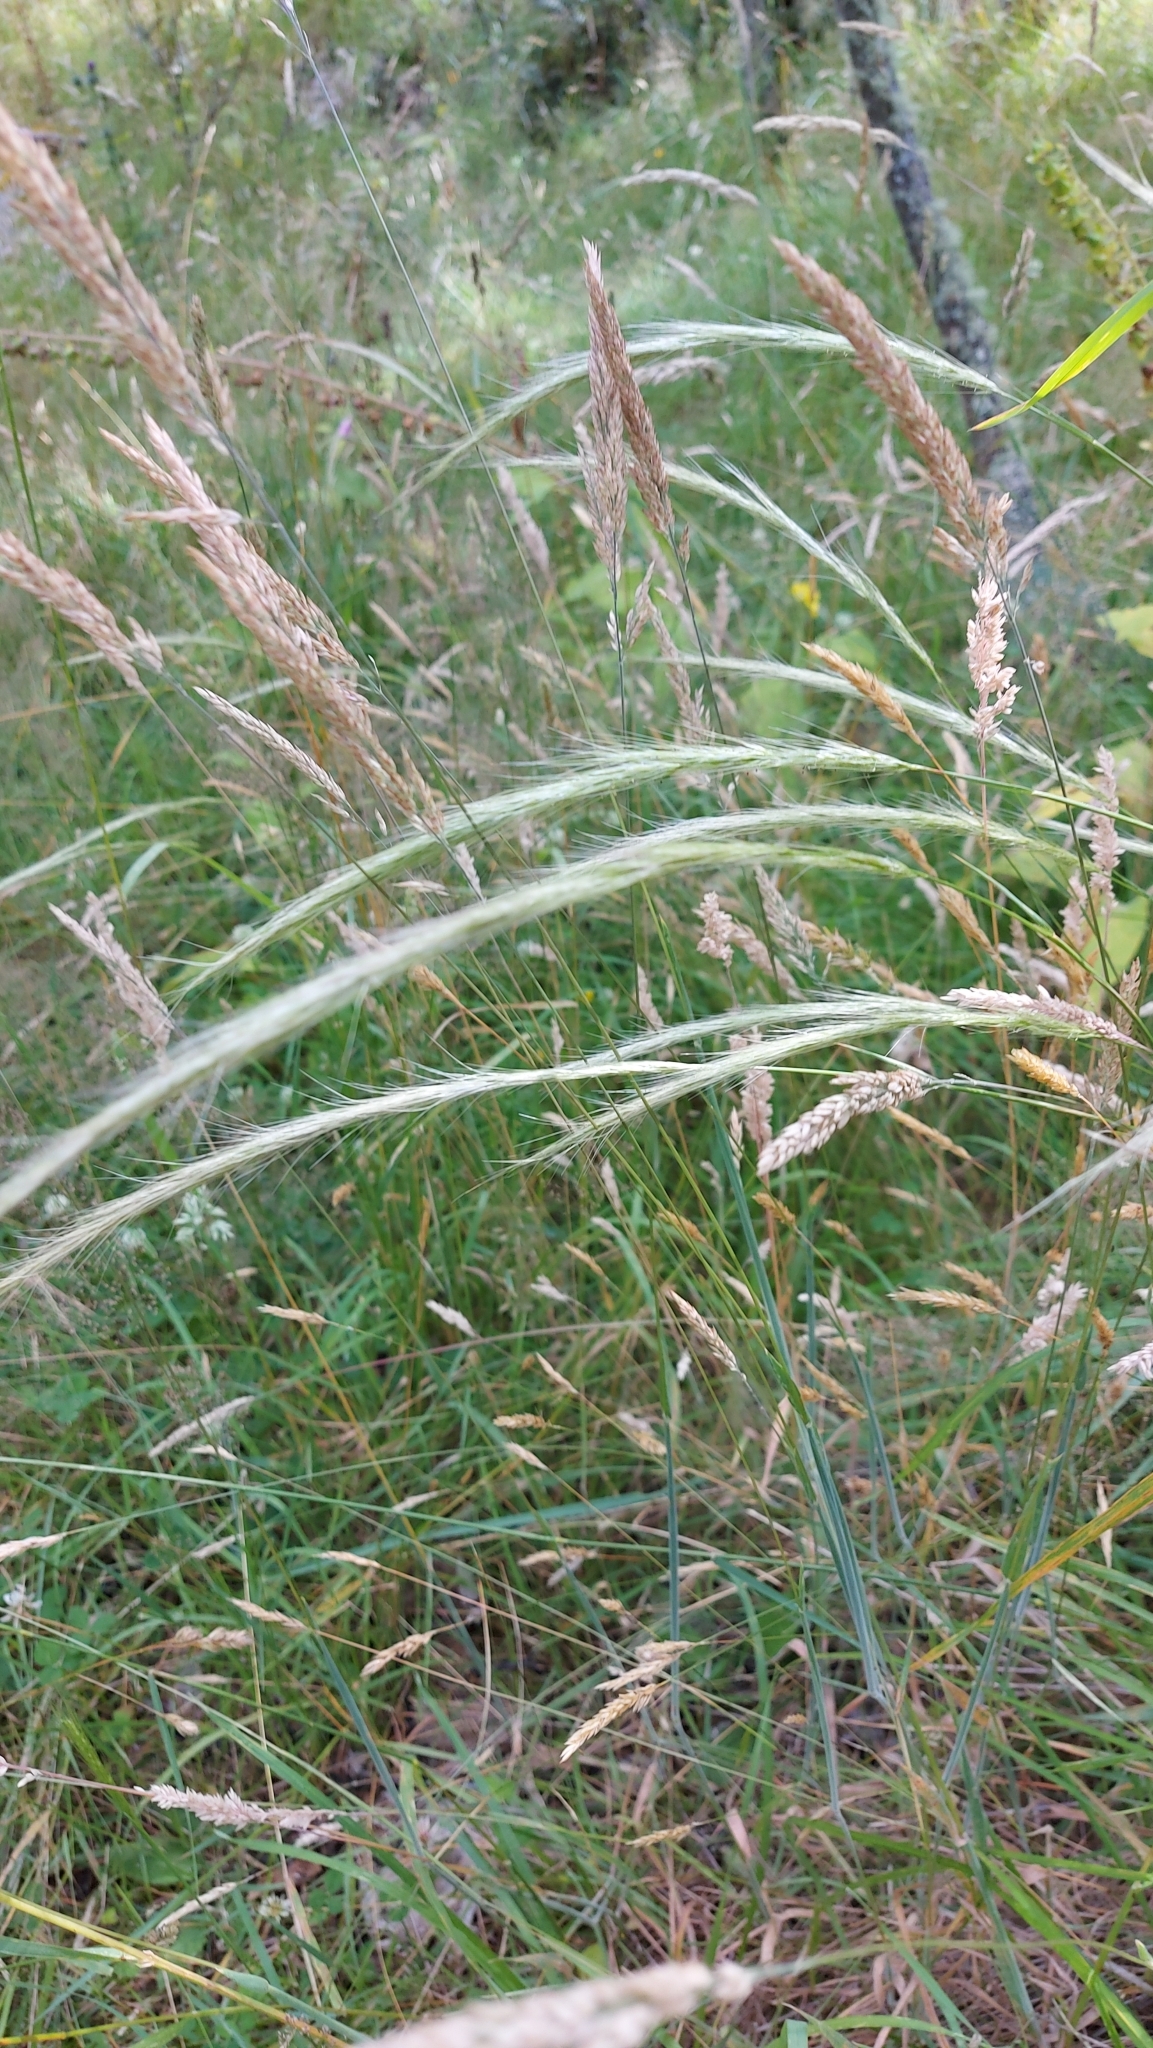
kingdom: Plantae
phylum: Tracheophyta
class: Liliopsida
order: Poales
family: Poaceae
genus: Dichelachne
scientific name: Dichelachne crinita
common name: Clovenfoot plumegrass
